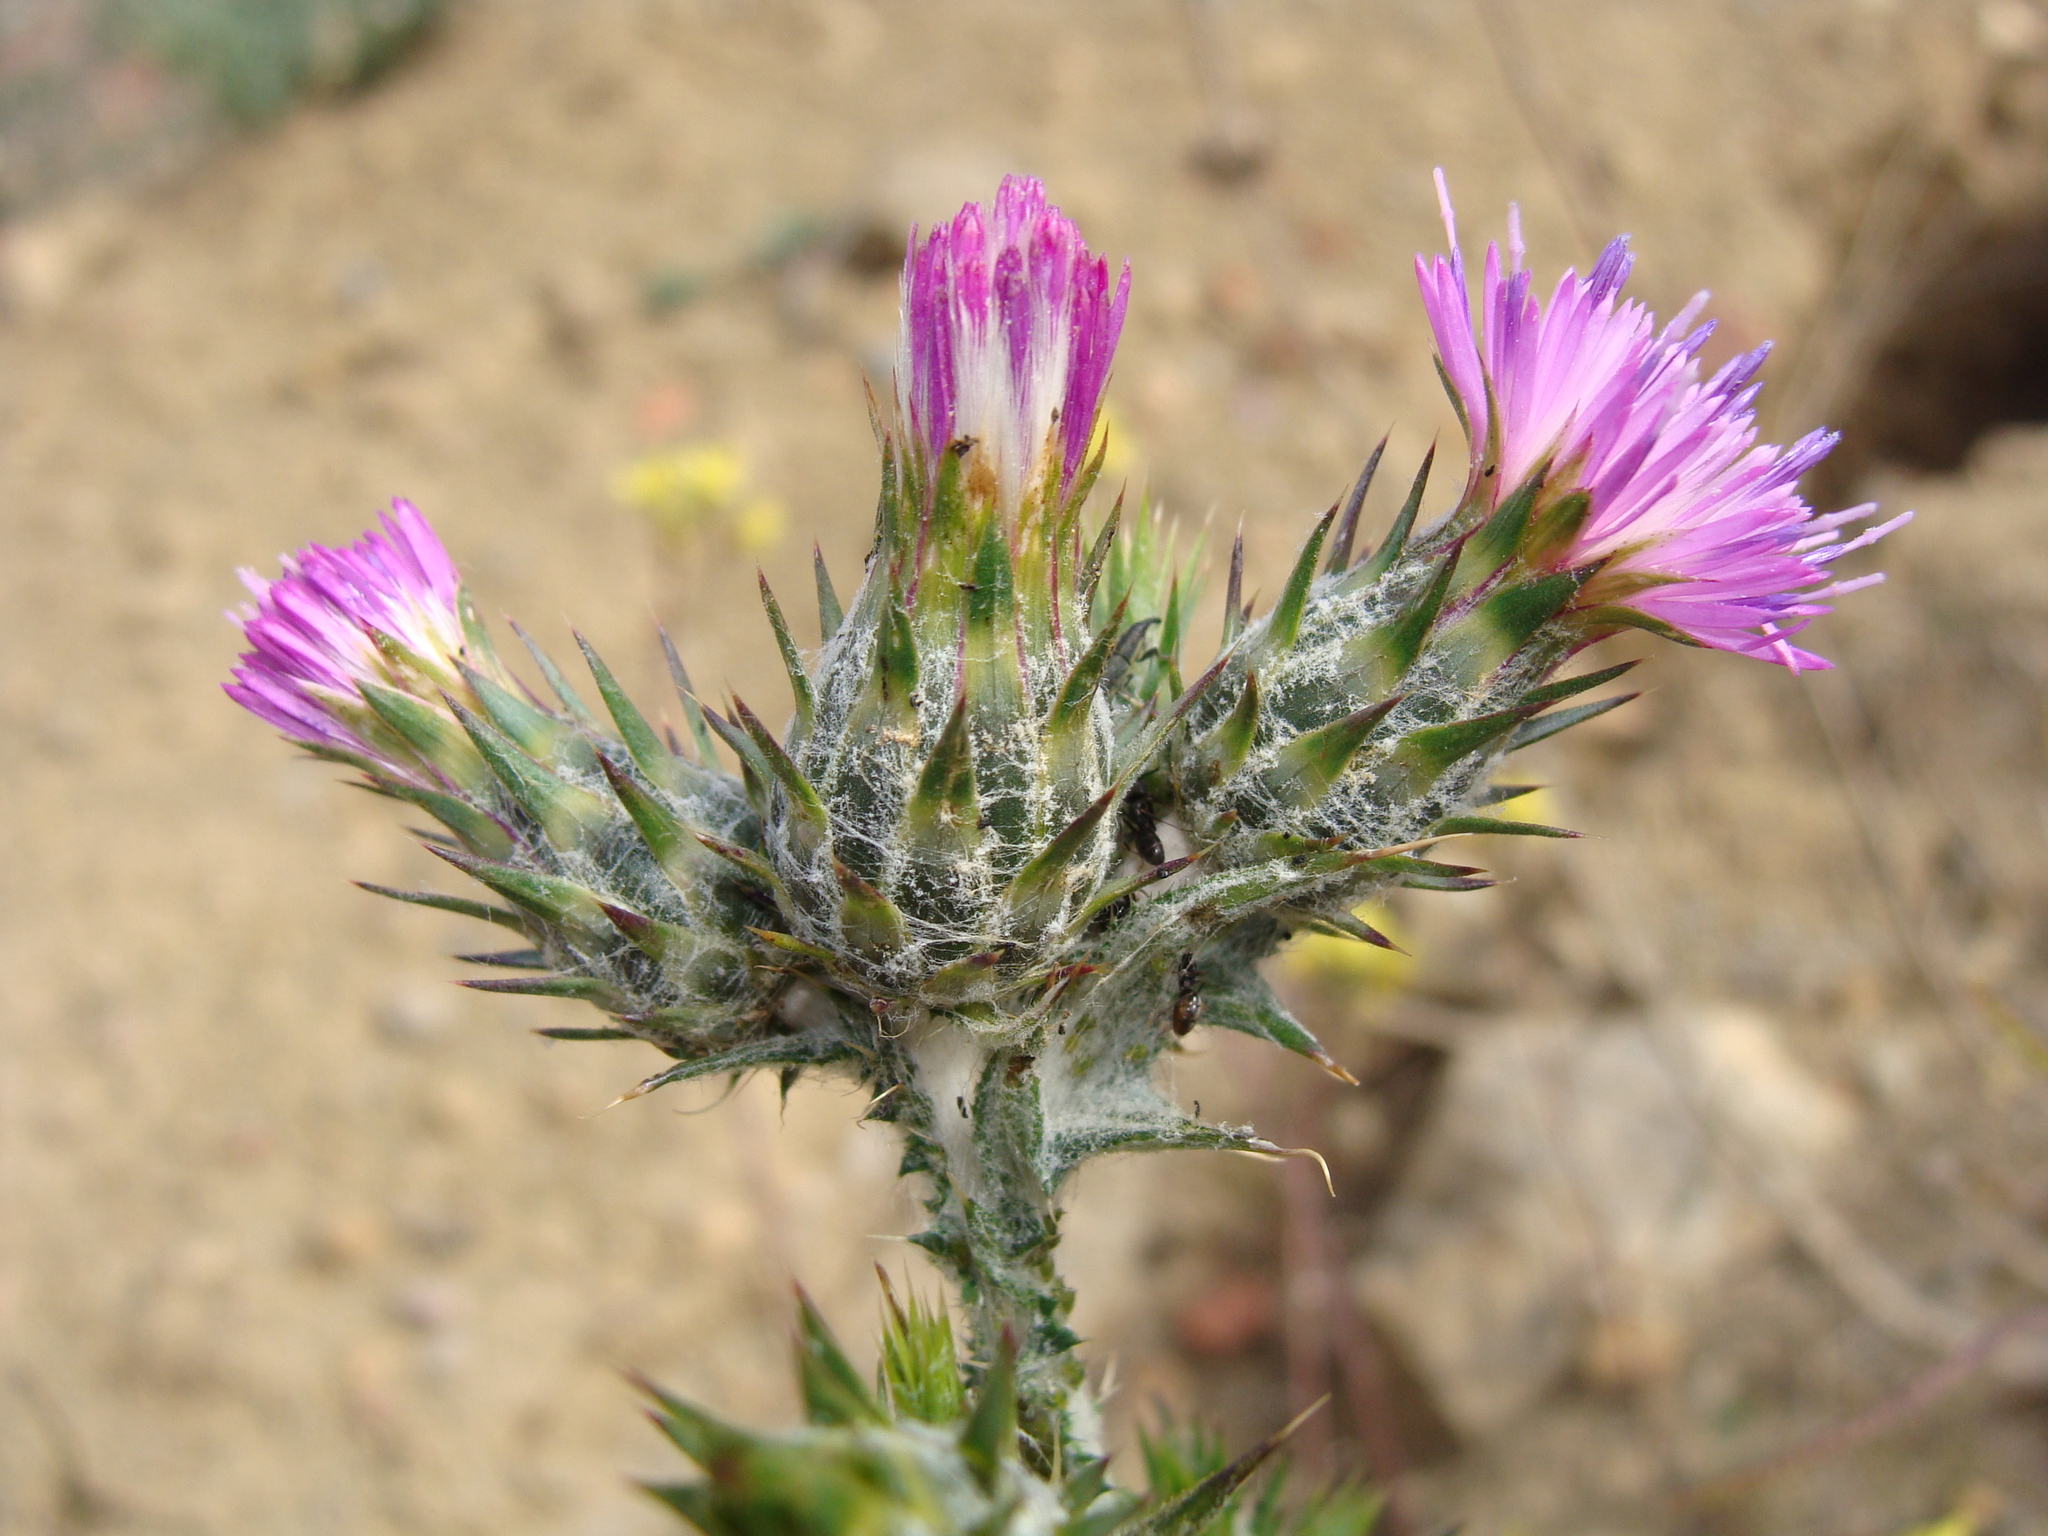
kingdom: Plantae
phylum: Tracheophyta
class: Magnoliopsida
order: Asterales
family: Asteraceae
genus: Carduus
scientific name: Carduus pycnocephalus
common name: Plymouth thistle
